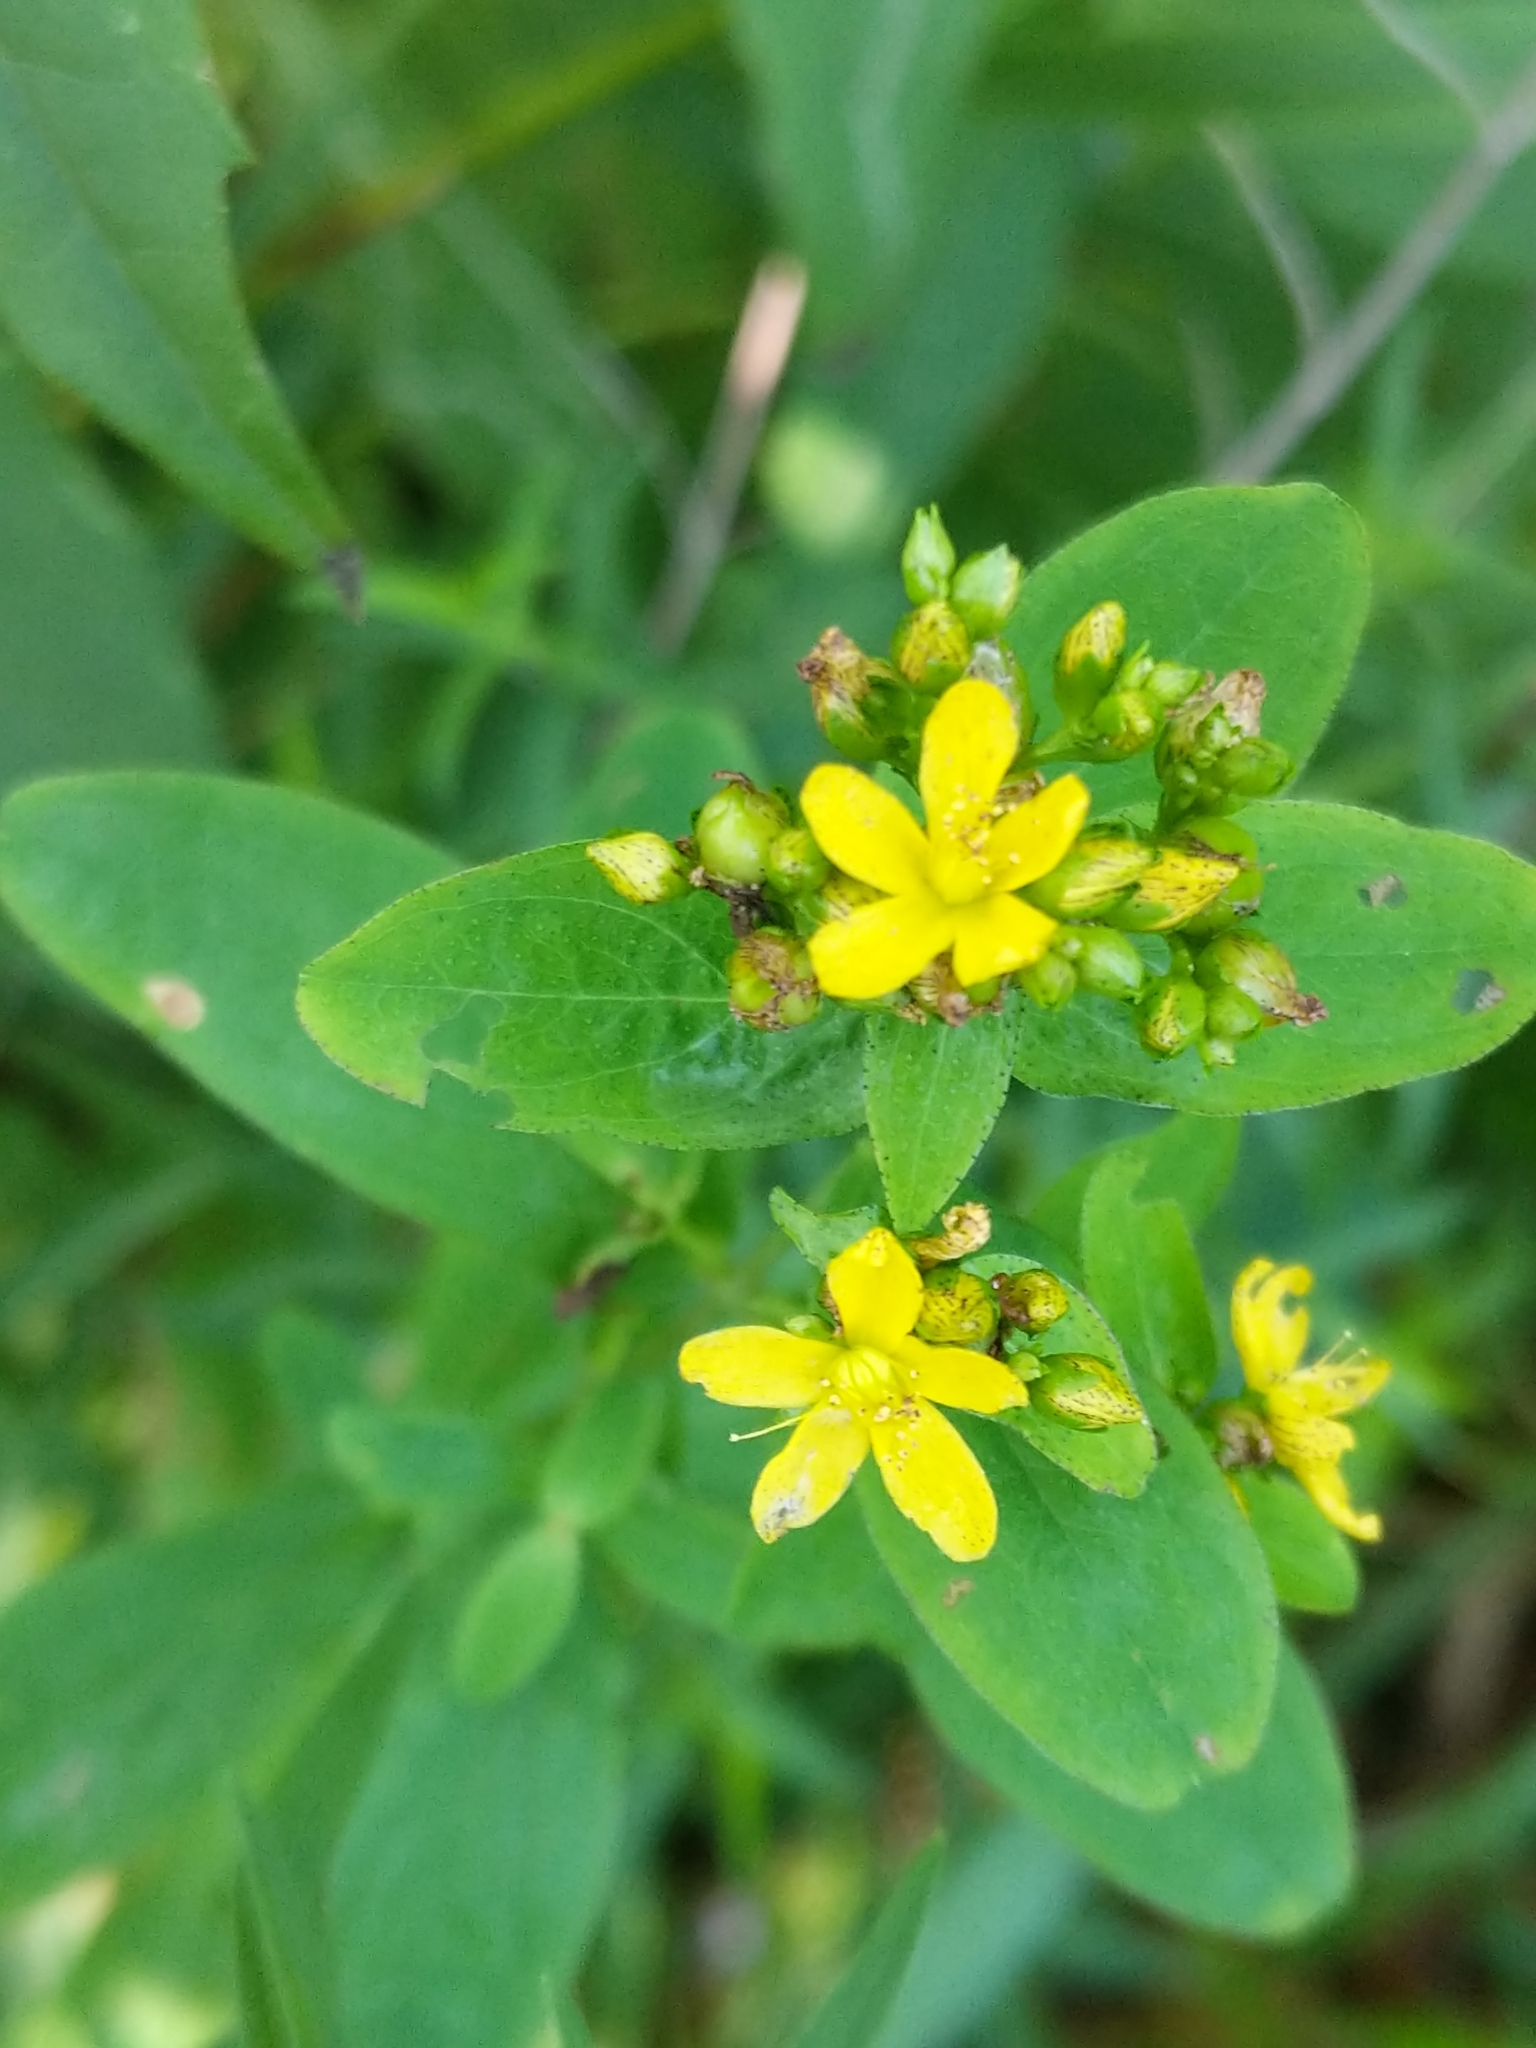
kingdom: Plantae
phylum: Tracheophyta
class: Magnoliopsida
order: Malpighiales
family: Hypericaceae
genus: Hypericum
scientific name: Hypericum punctatum
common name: Spotted st. john's-wort
